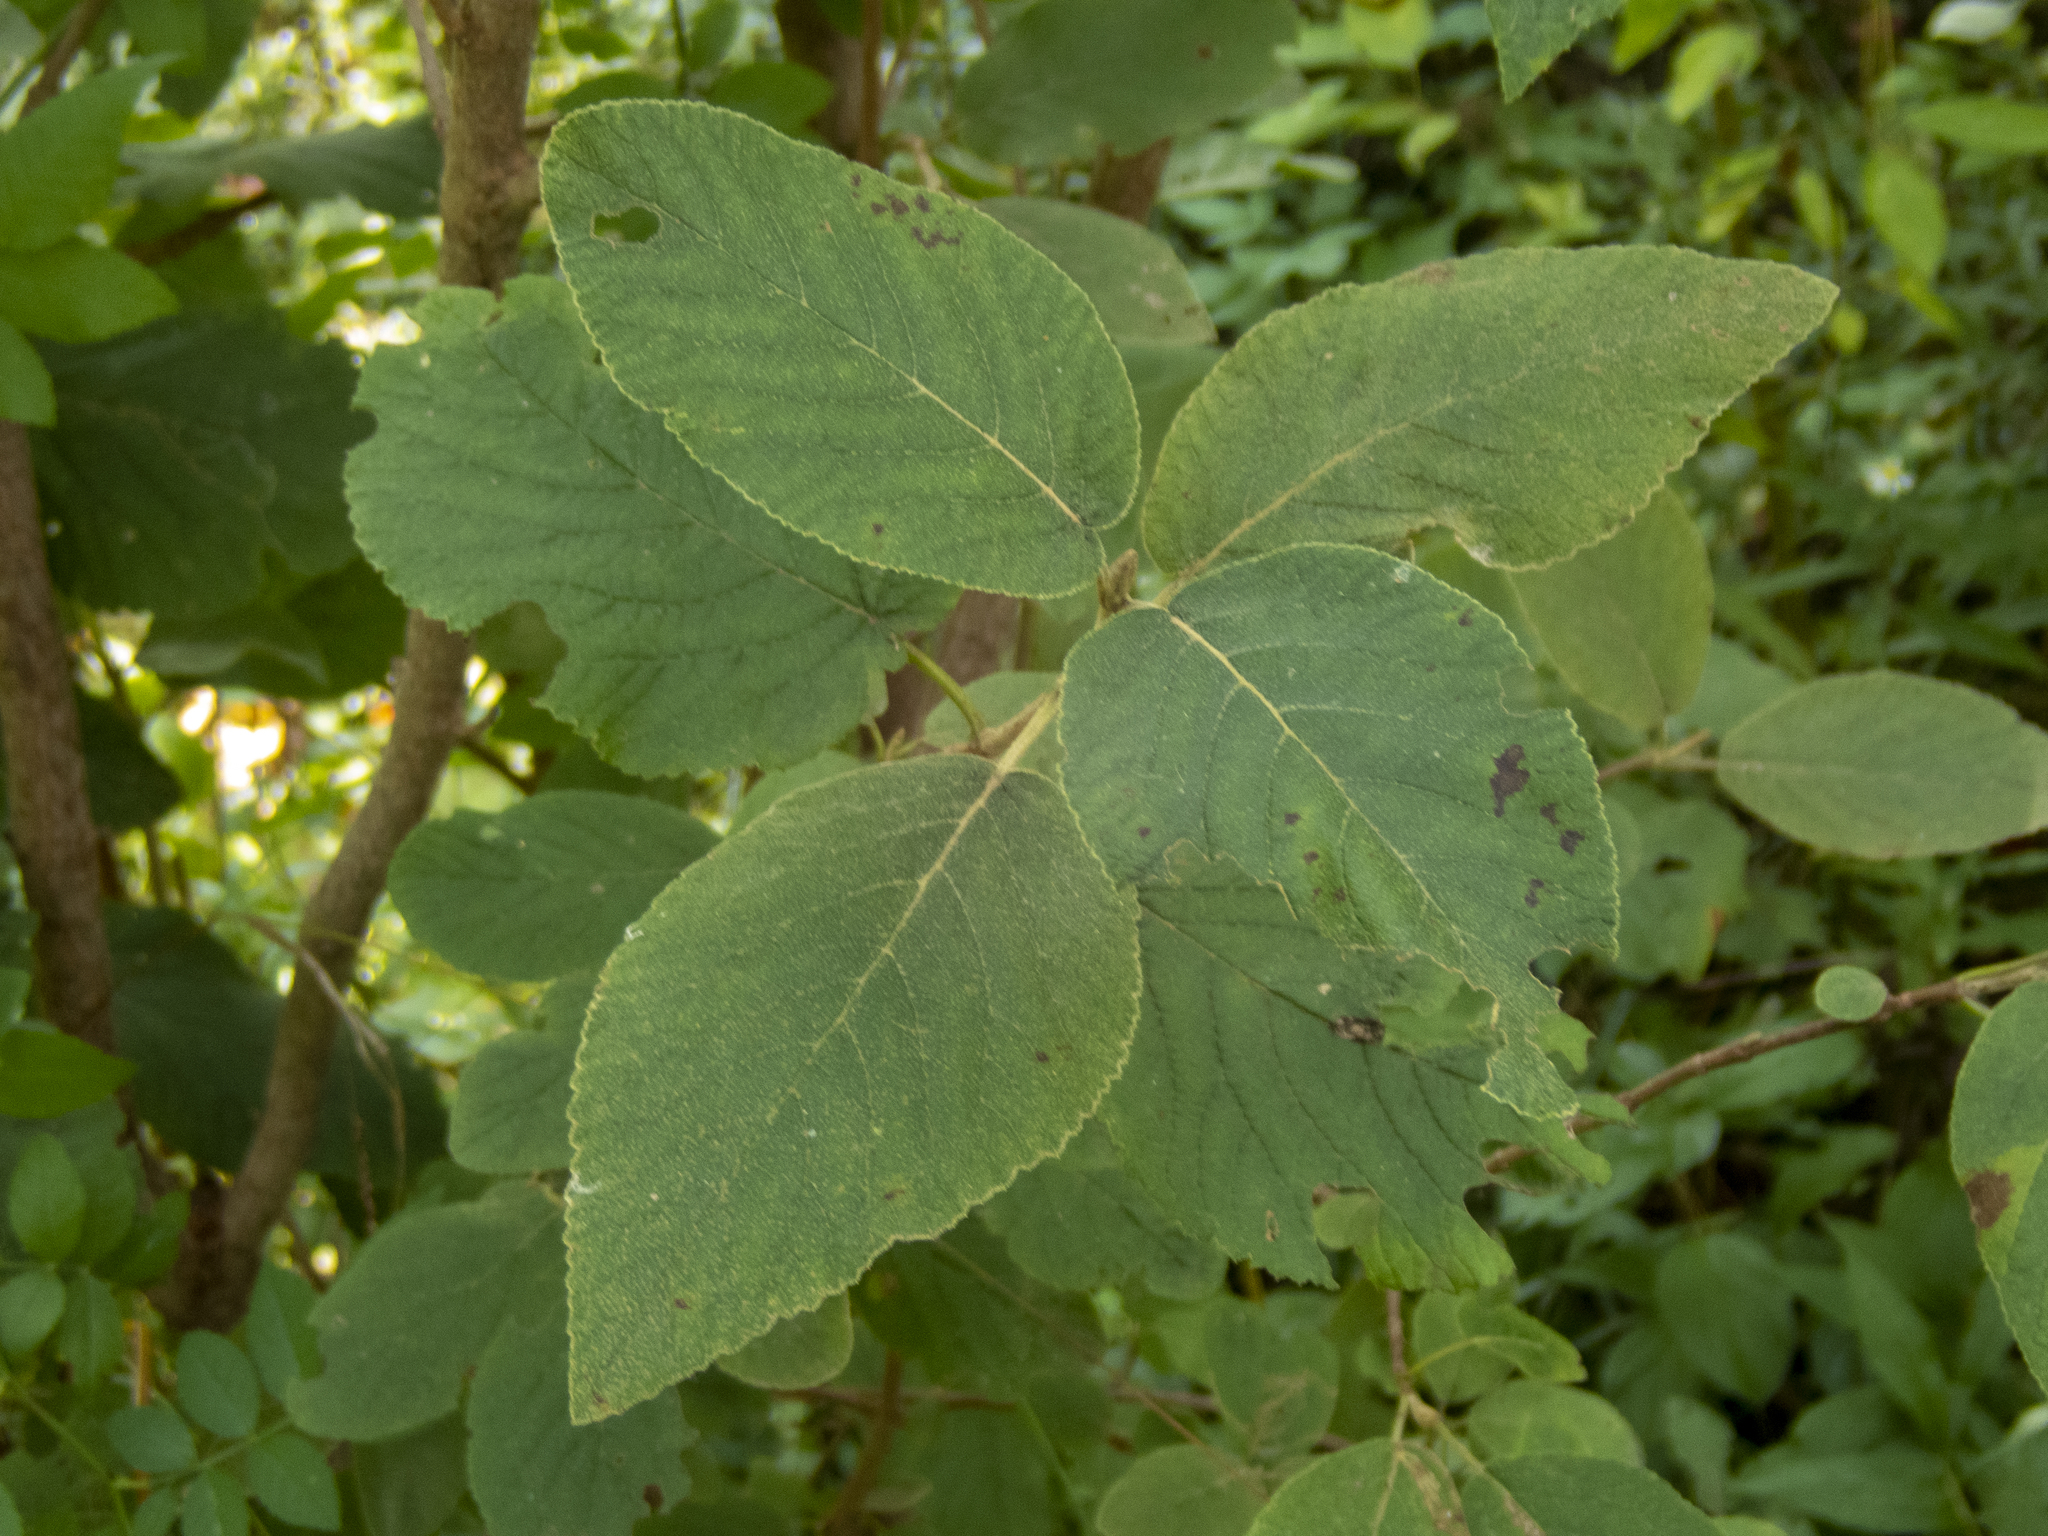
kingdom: Plantae
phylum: Tracheophyta
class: Magnoliopsida
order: Dipsacales
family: Viburnaceae
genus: Viburnum
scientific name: Viburnum lantana
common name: Wayfaring tree
